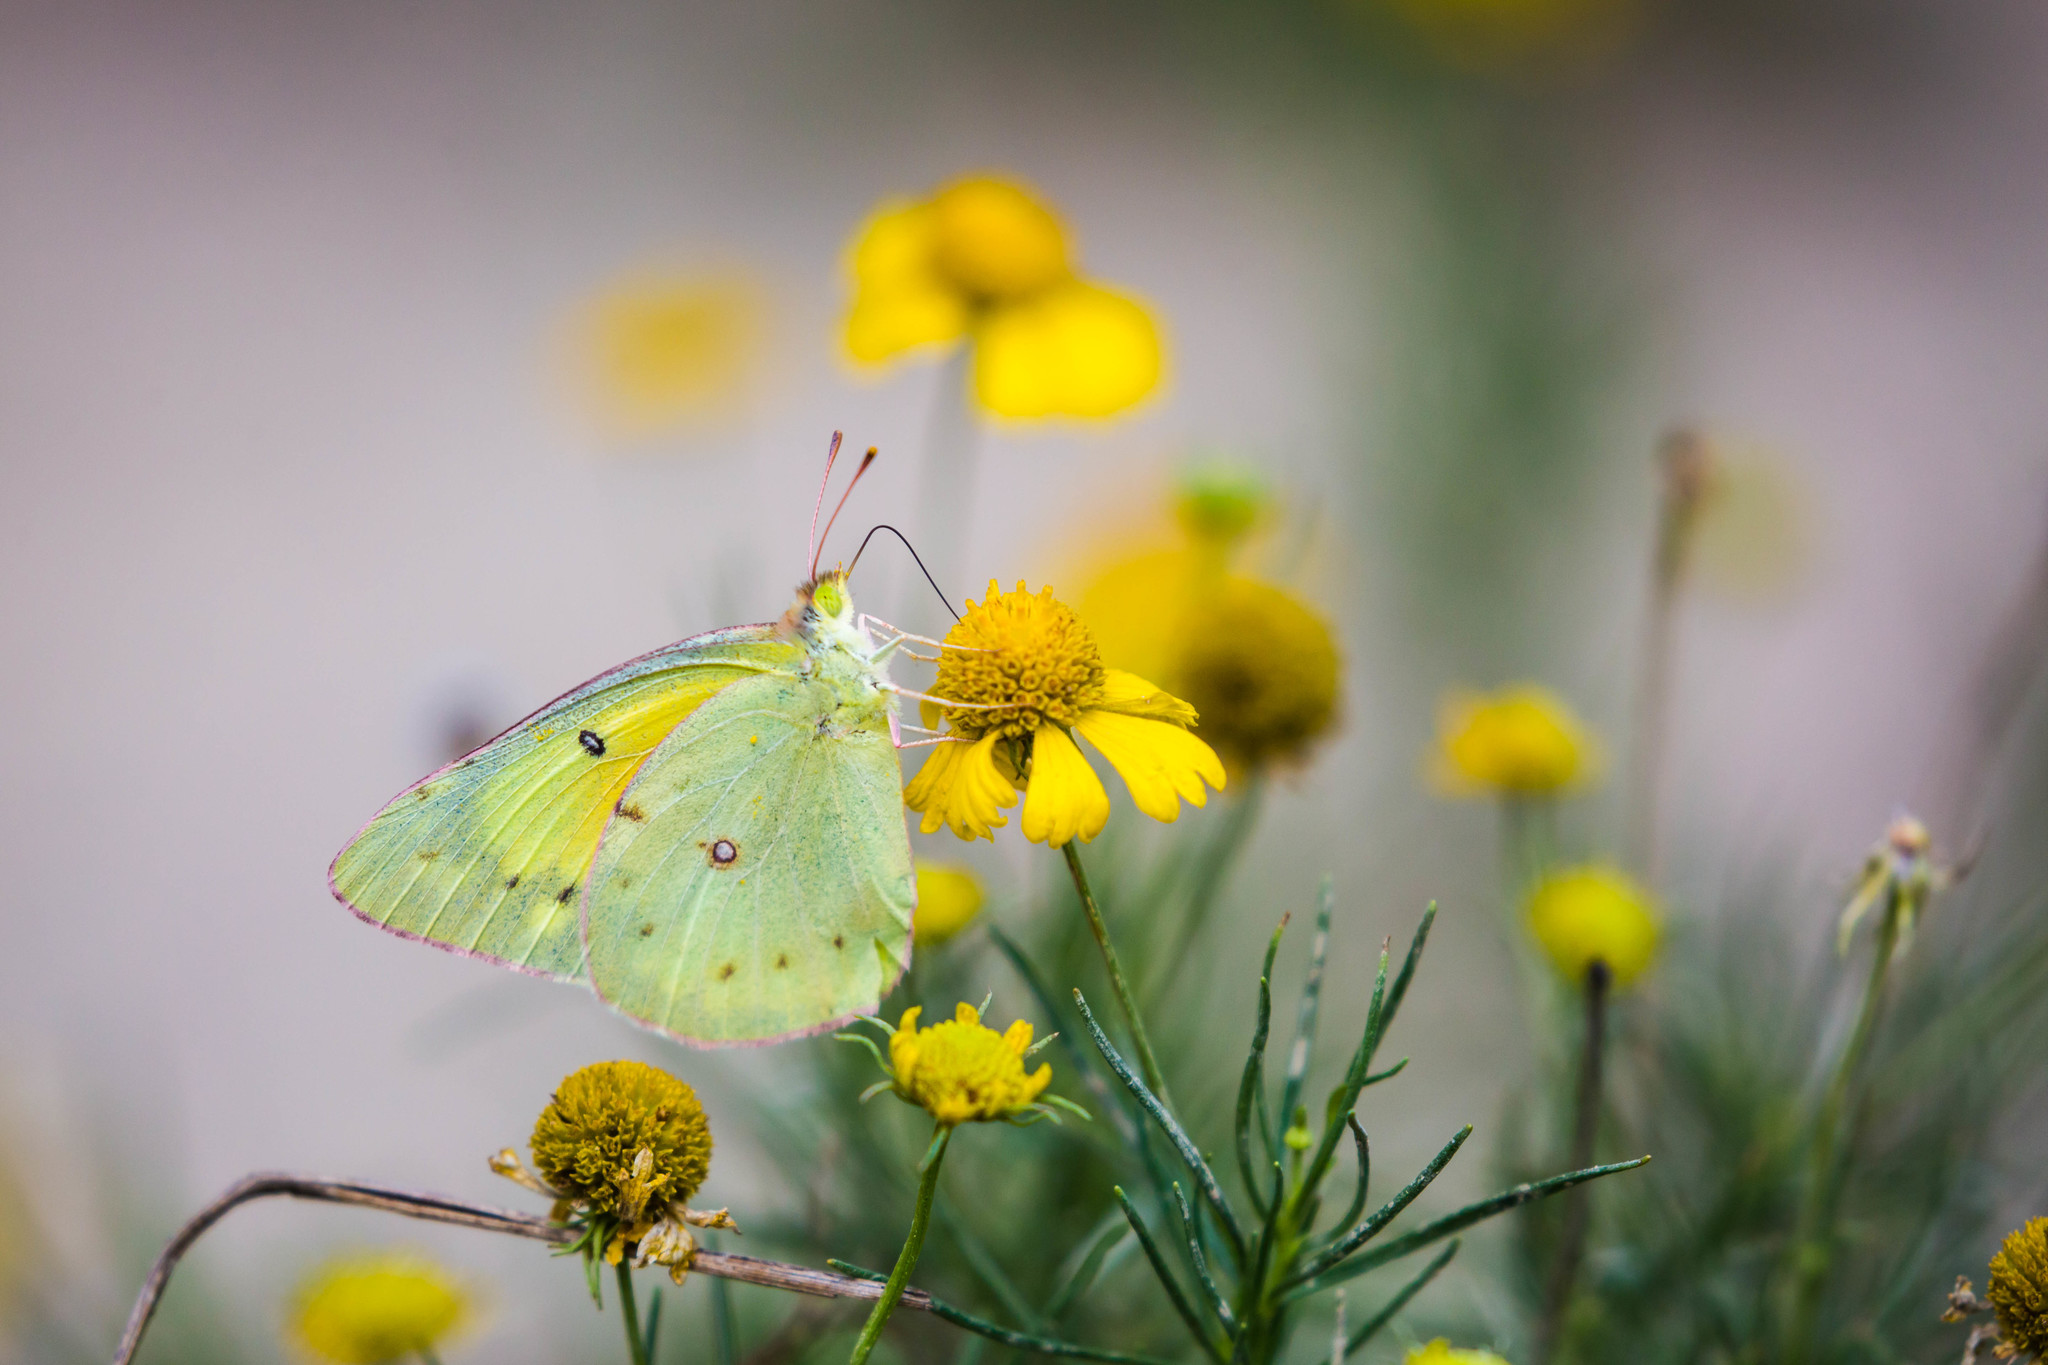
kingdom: Animalia
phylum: Arthropoda
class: Insecta
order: Lepidoptera
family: Pieridae
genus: Colias
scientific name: Colias eurytheme
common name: Alfalfa butterfly
